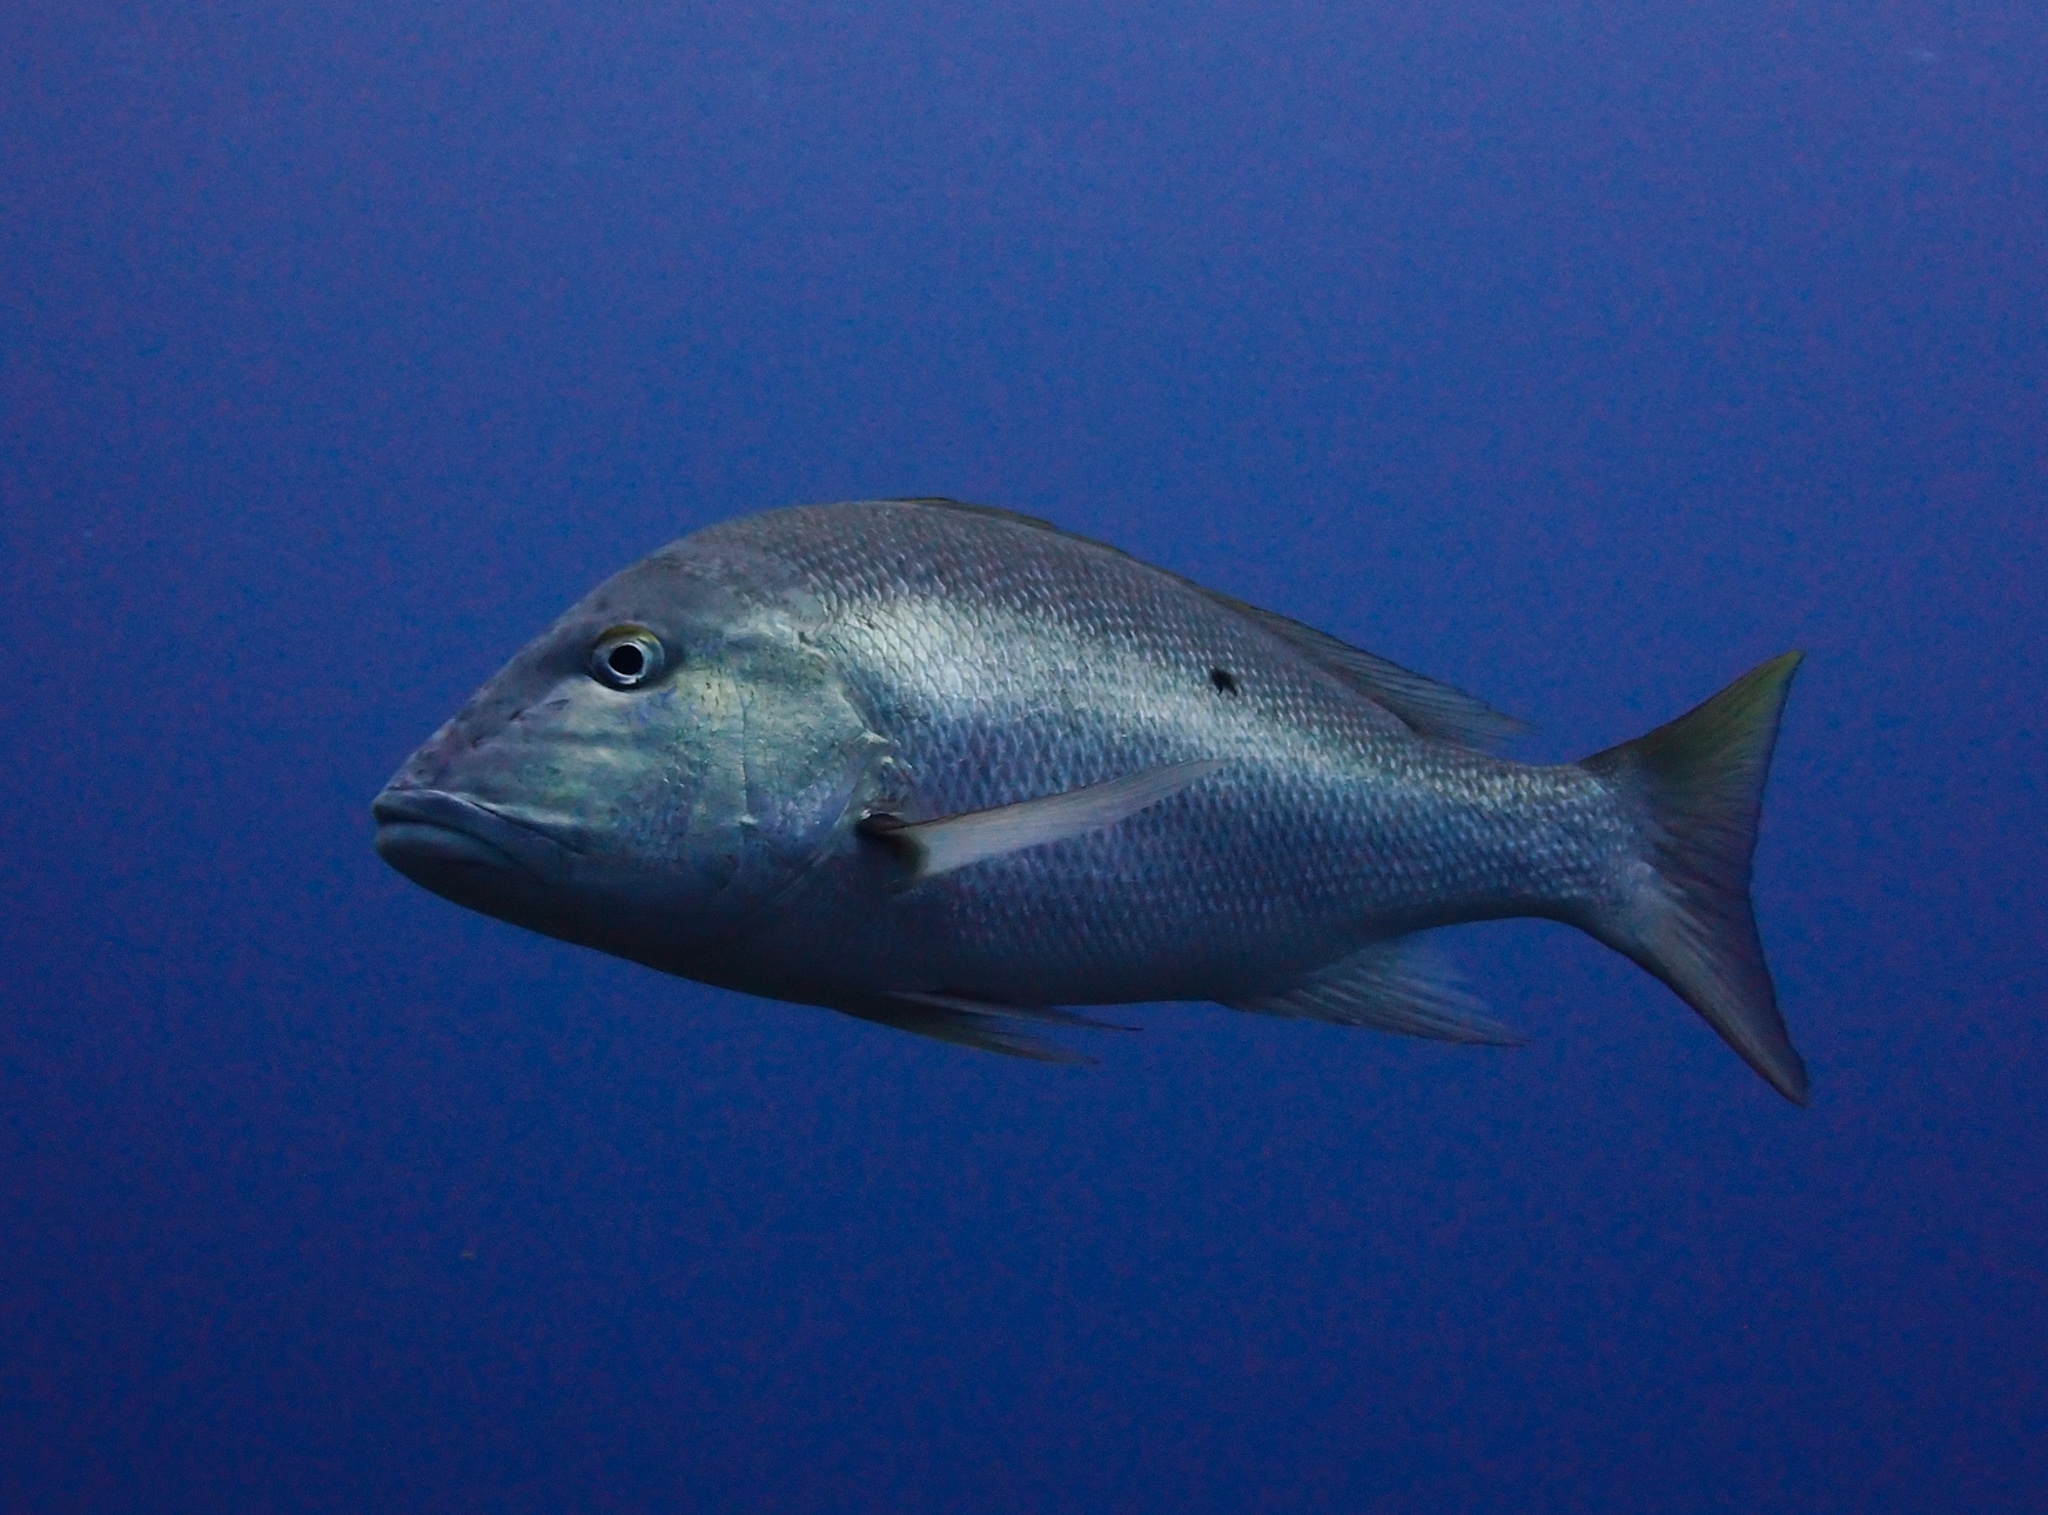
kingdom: Animalia
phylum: Chordata
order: Perciformes
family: Lutjanidae
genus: Lutjanus
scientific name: Lutjanus analis
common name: Mutton snapper
